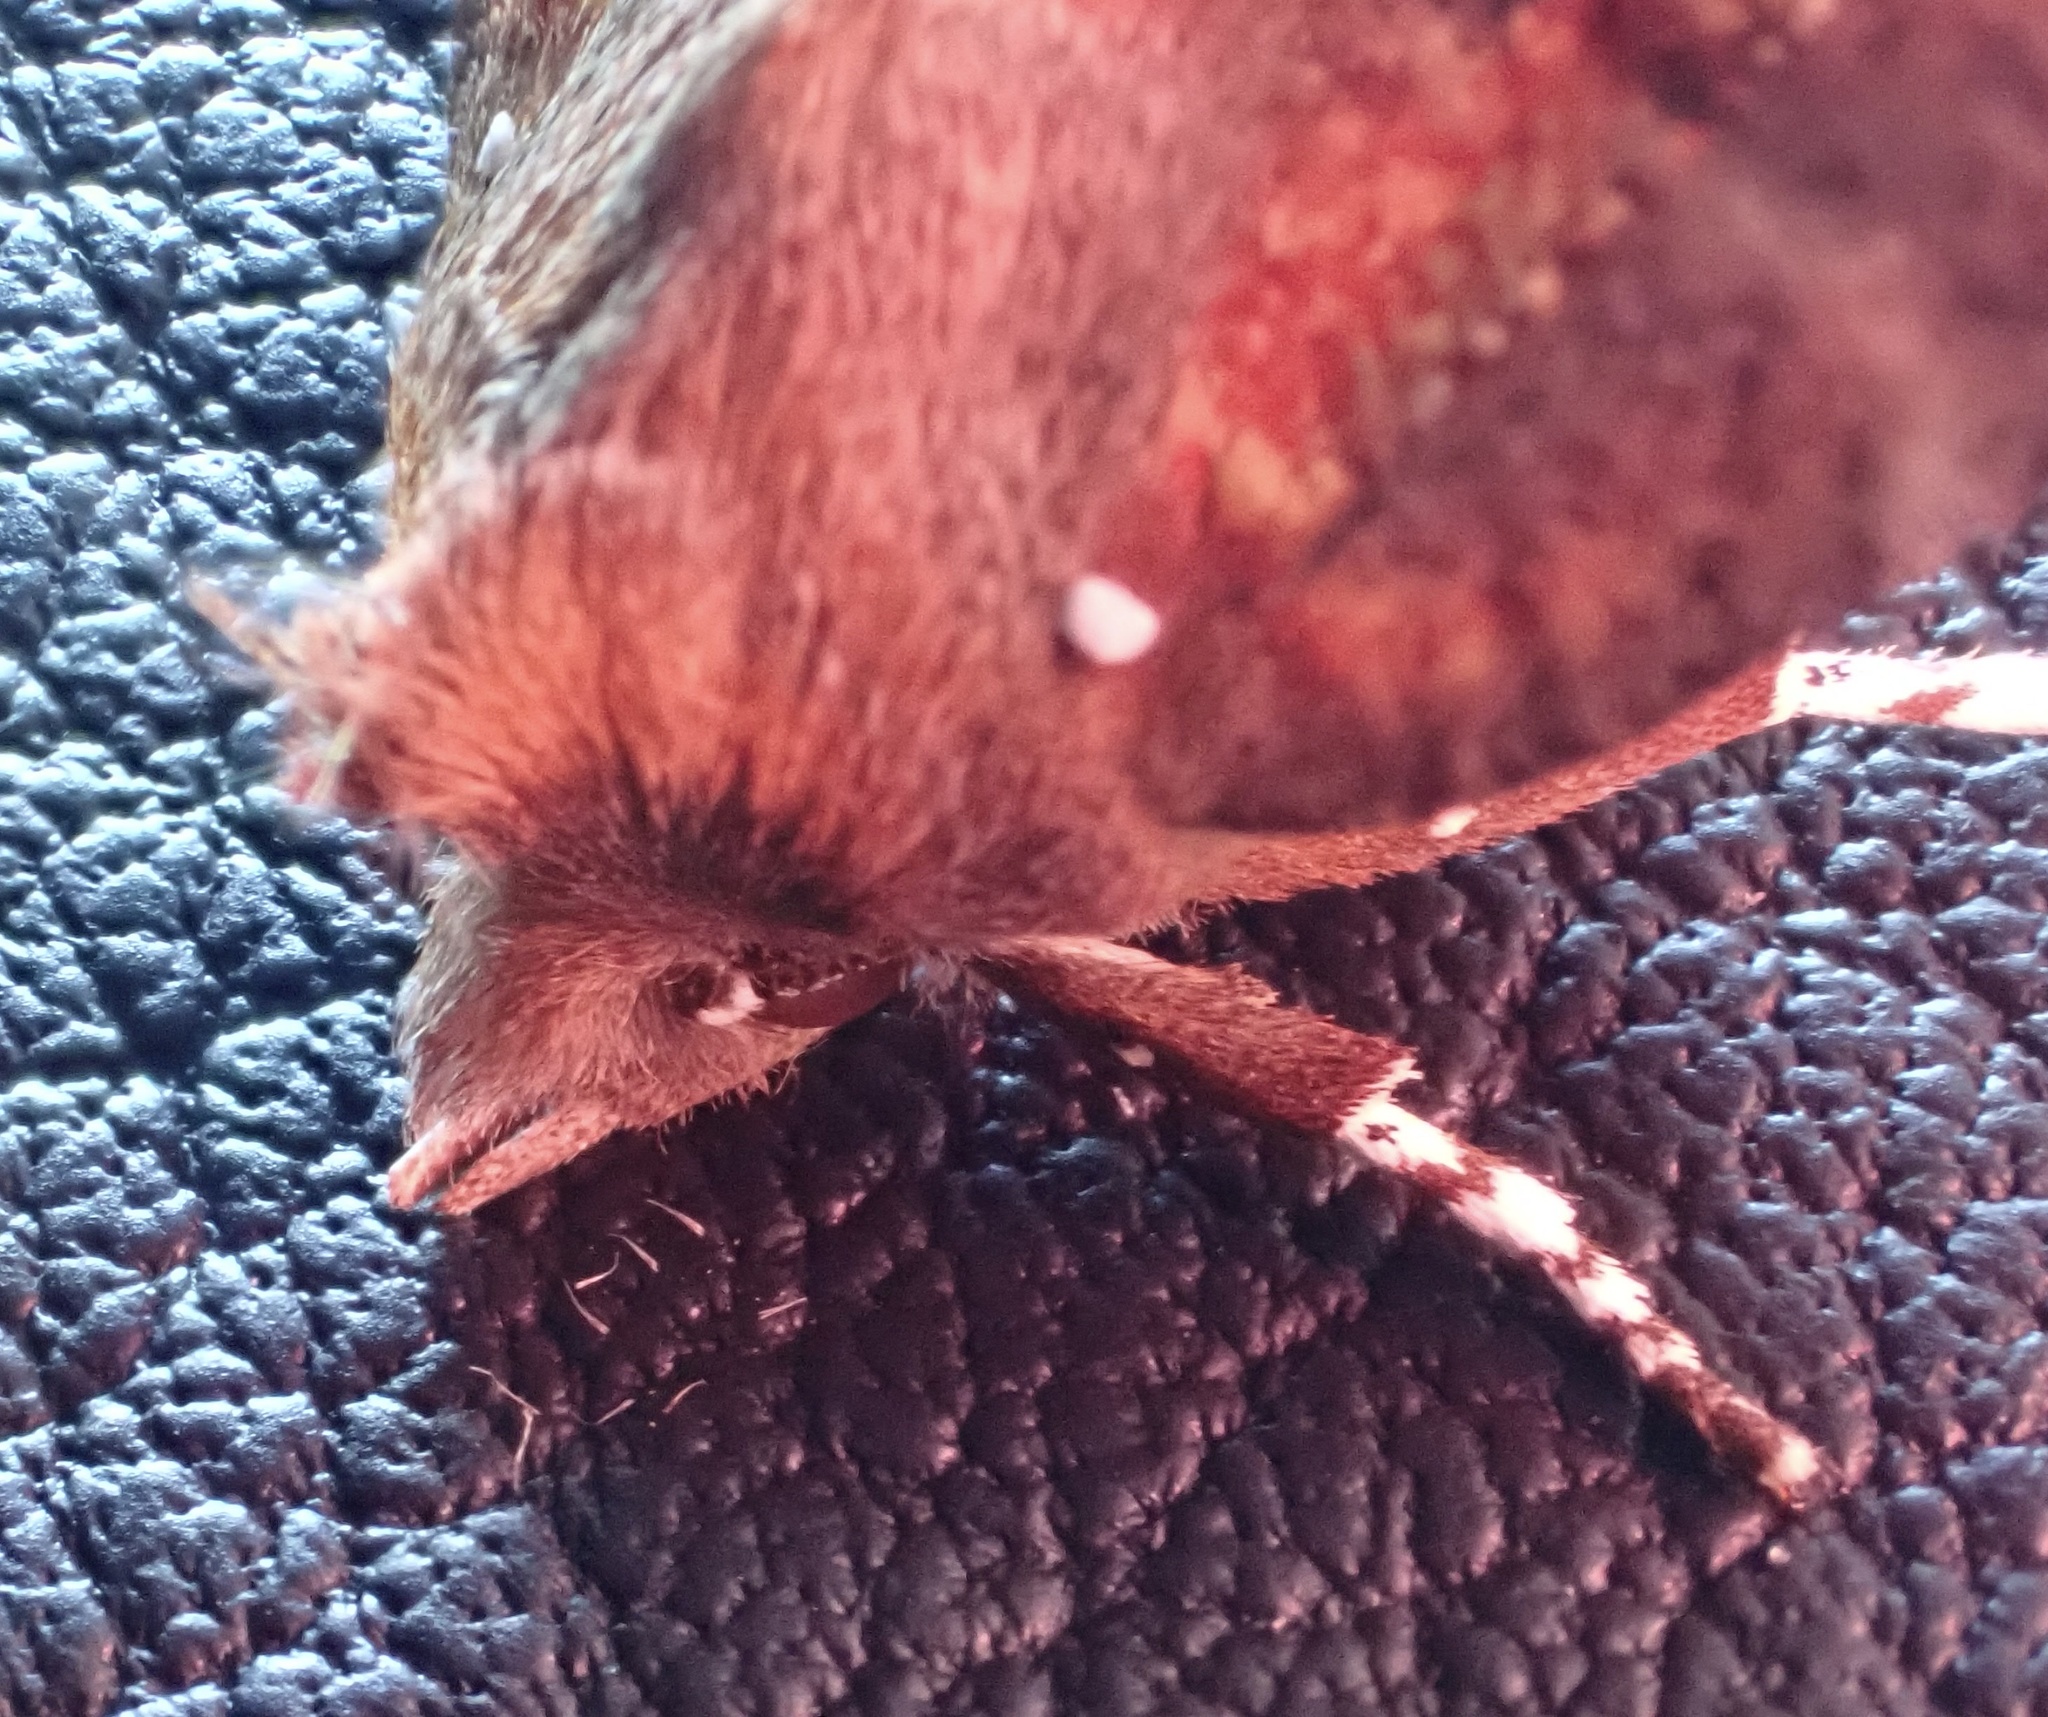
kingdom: Animalia
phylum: Arthropoda
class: Insecta
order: Lepidoptera
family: Erebidae
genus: Scoliopteryx
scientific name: Scoliopteryx libatrix
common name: Herald
